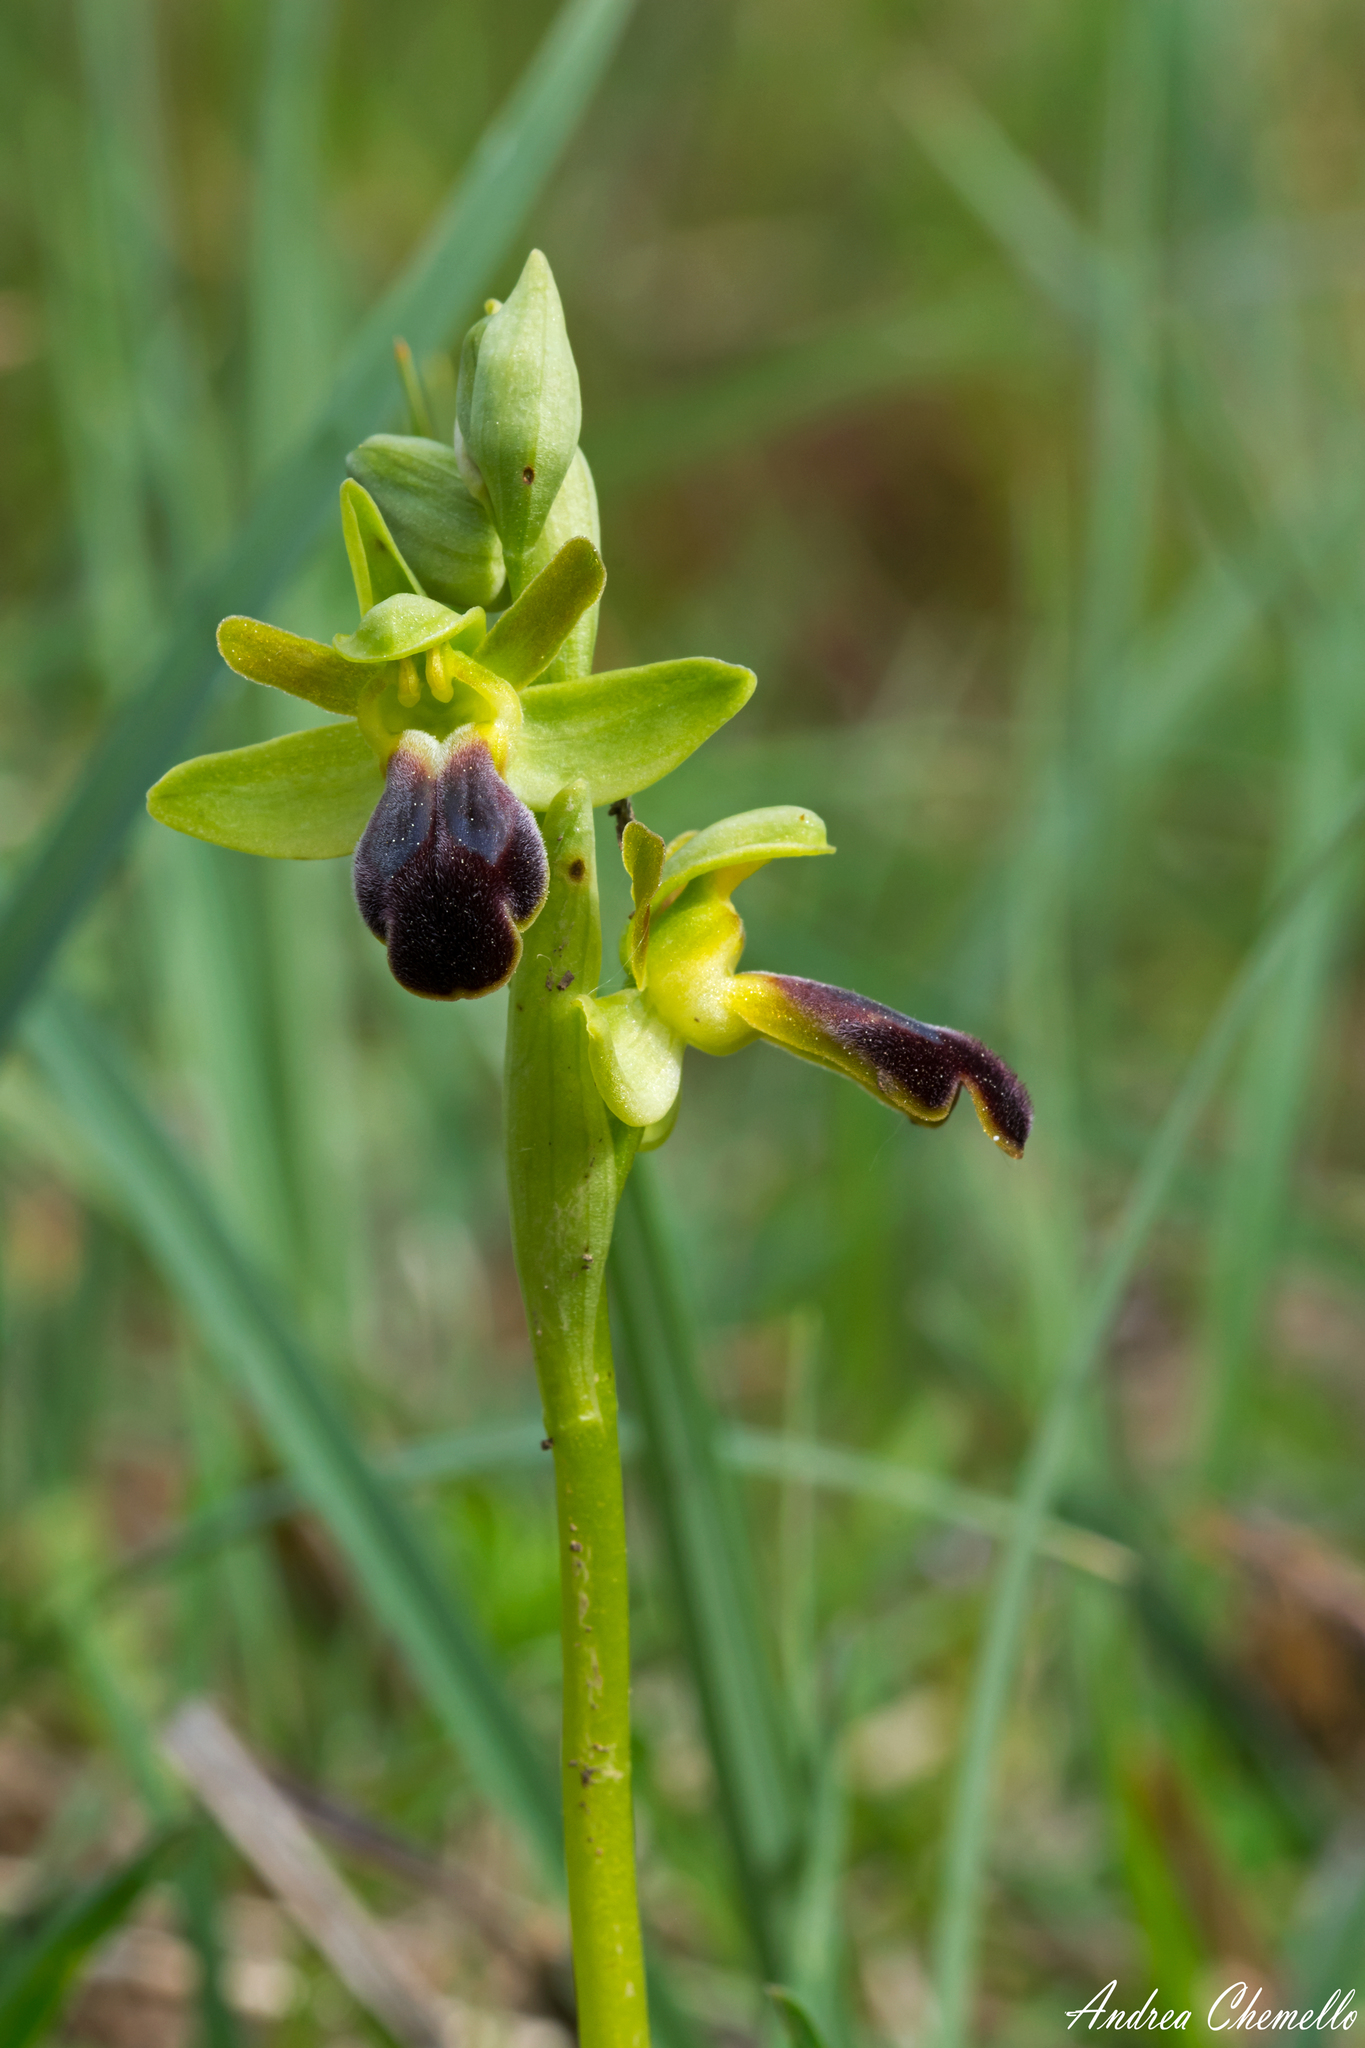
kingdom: Plantae
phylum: Tracheophyta
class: Liliopsida
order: Asparagales
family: Orchidaceae
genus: Ophrys
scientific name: Ophrys fusca
